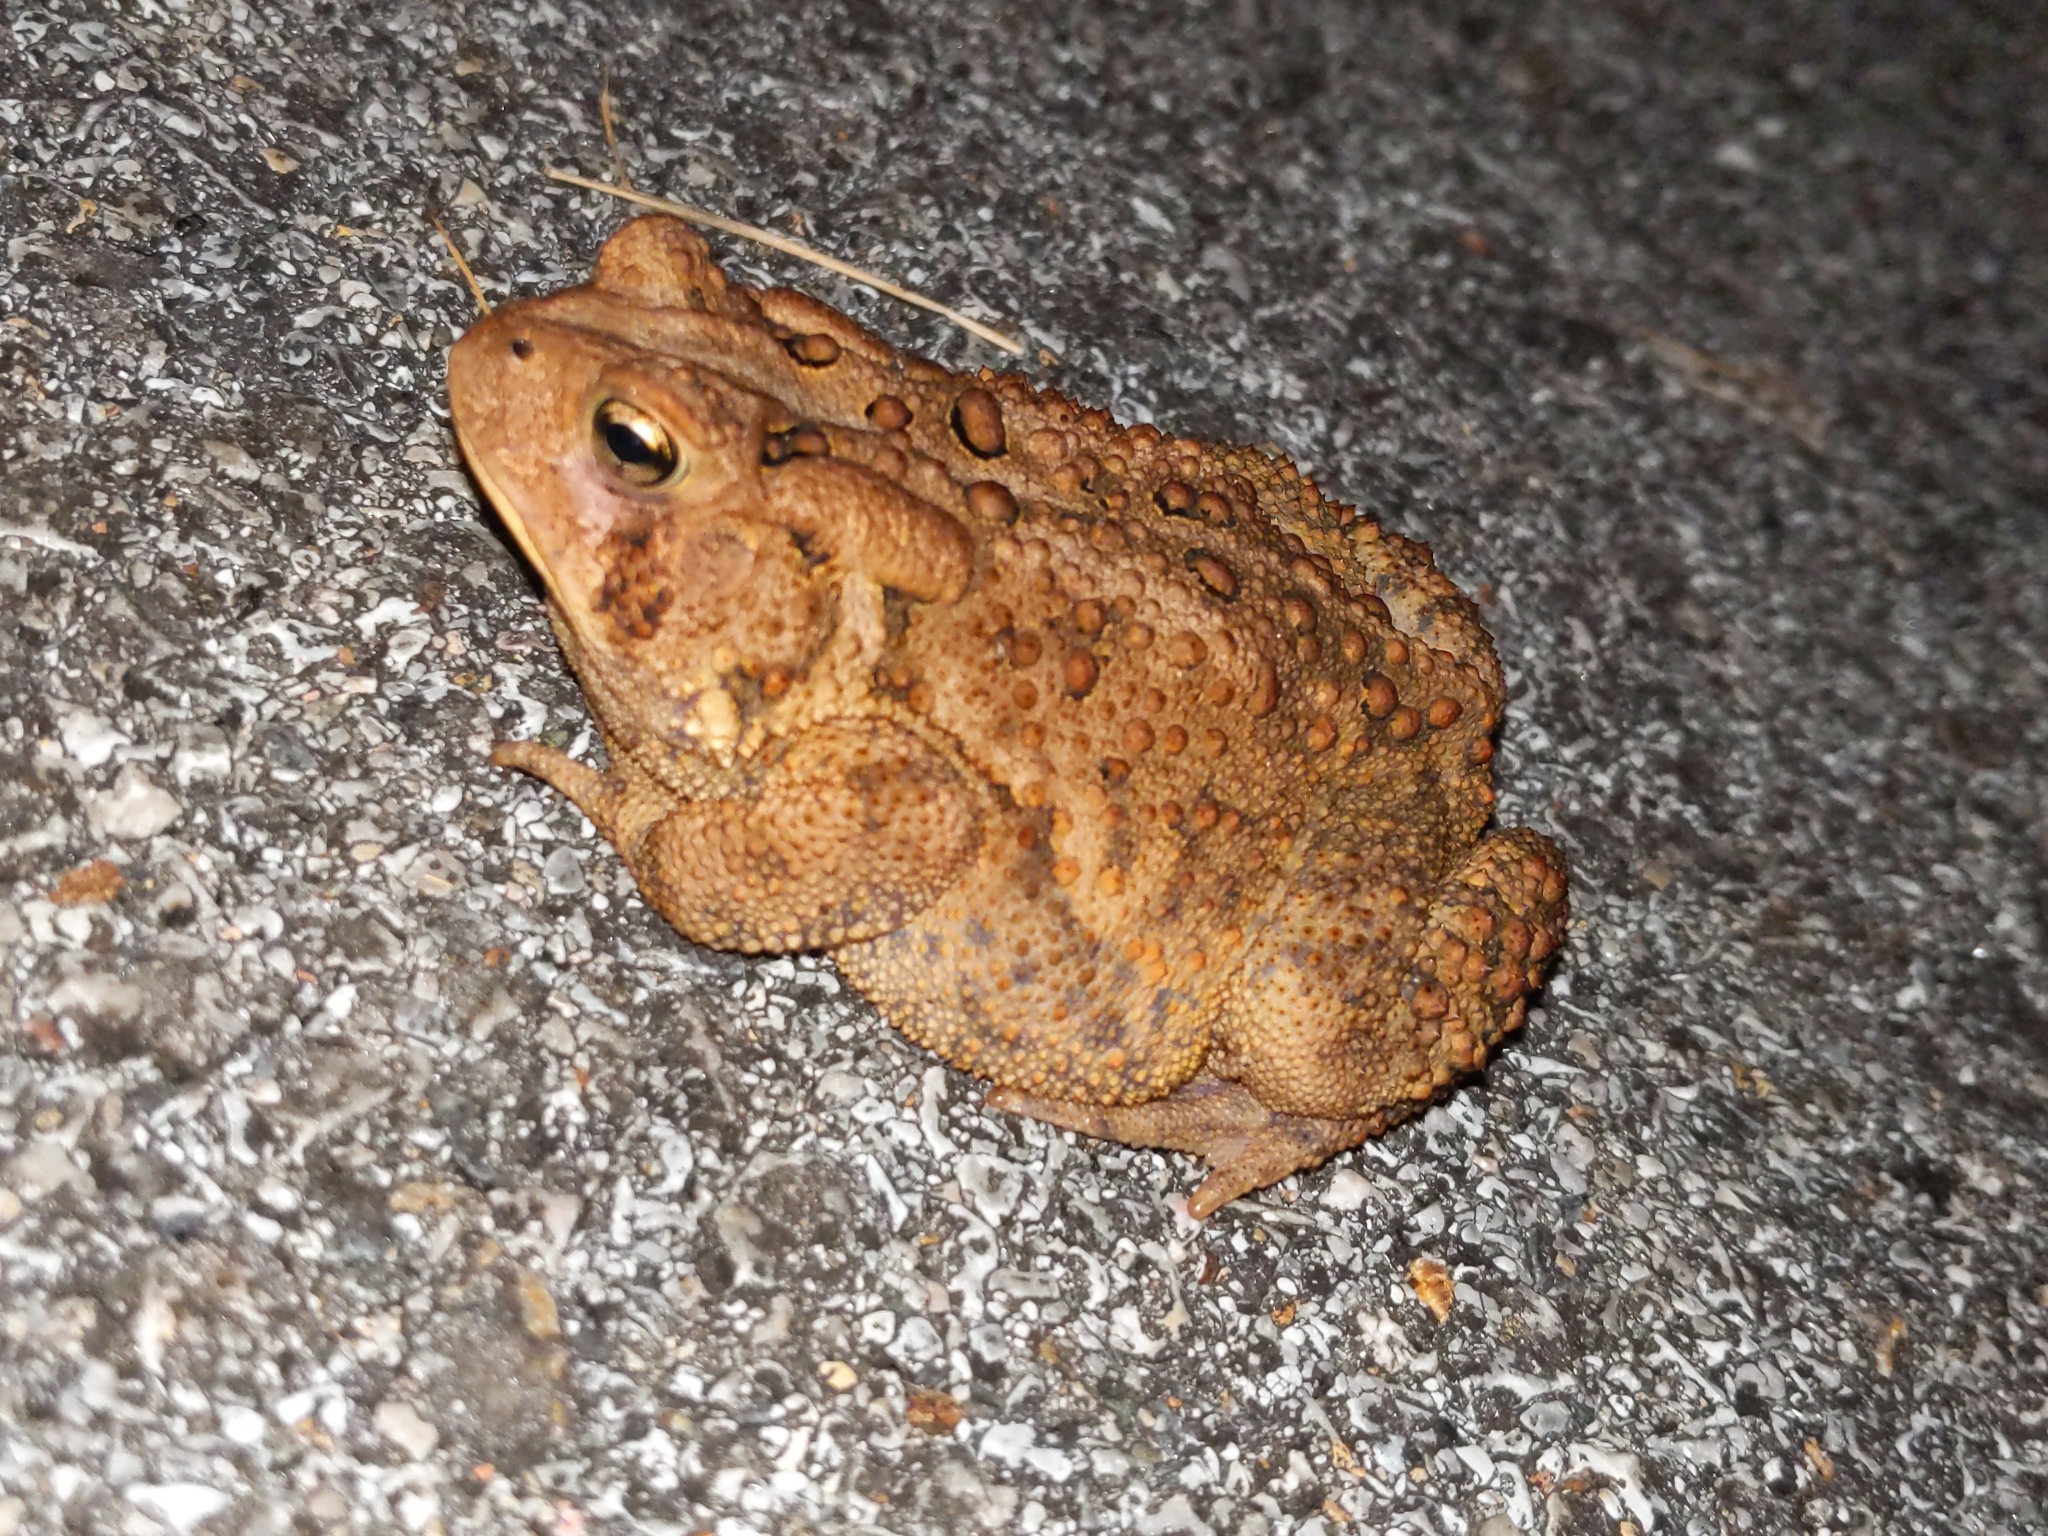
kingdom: Animalia
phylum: Chordata
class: Amphibia
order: Anura
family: Bufonidae
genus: Anaxyrus
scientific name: Anaxyrus americanus
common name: American toad
